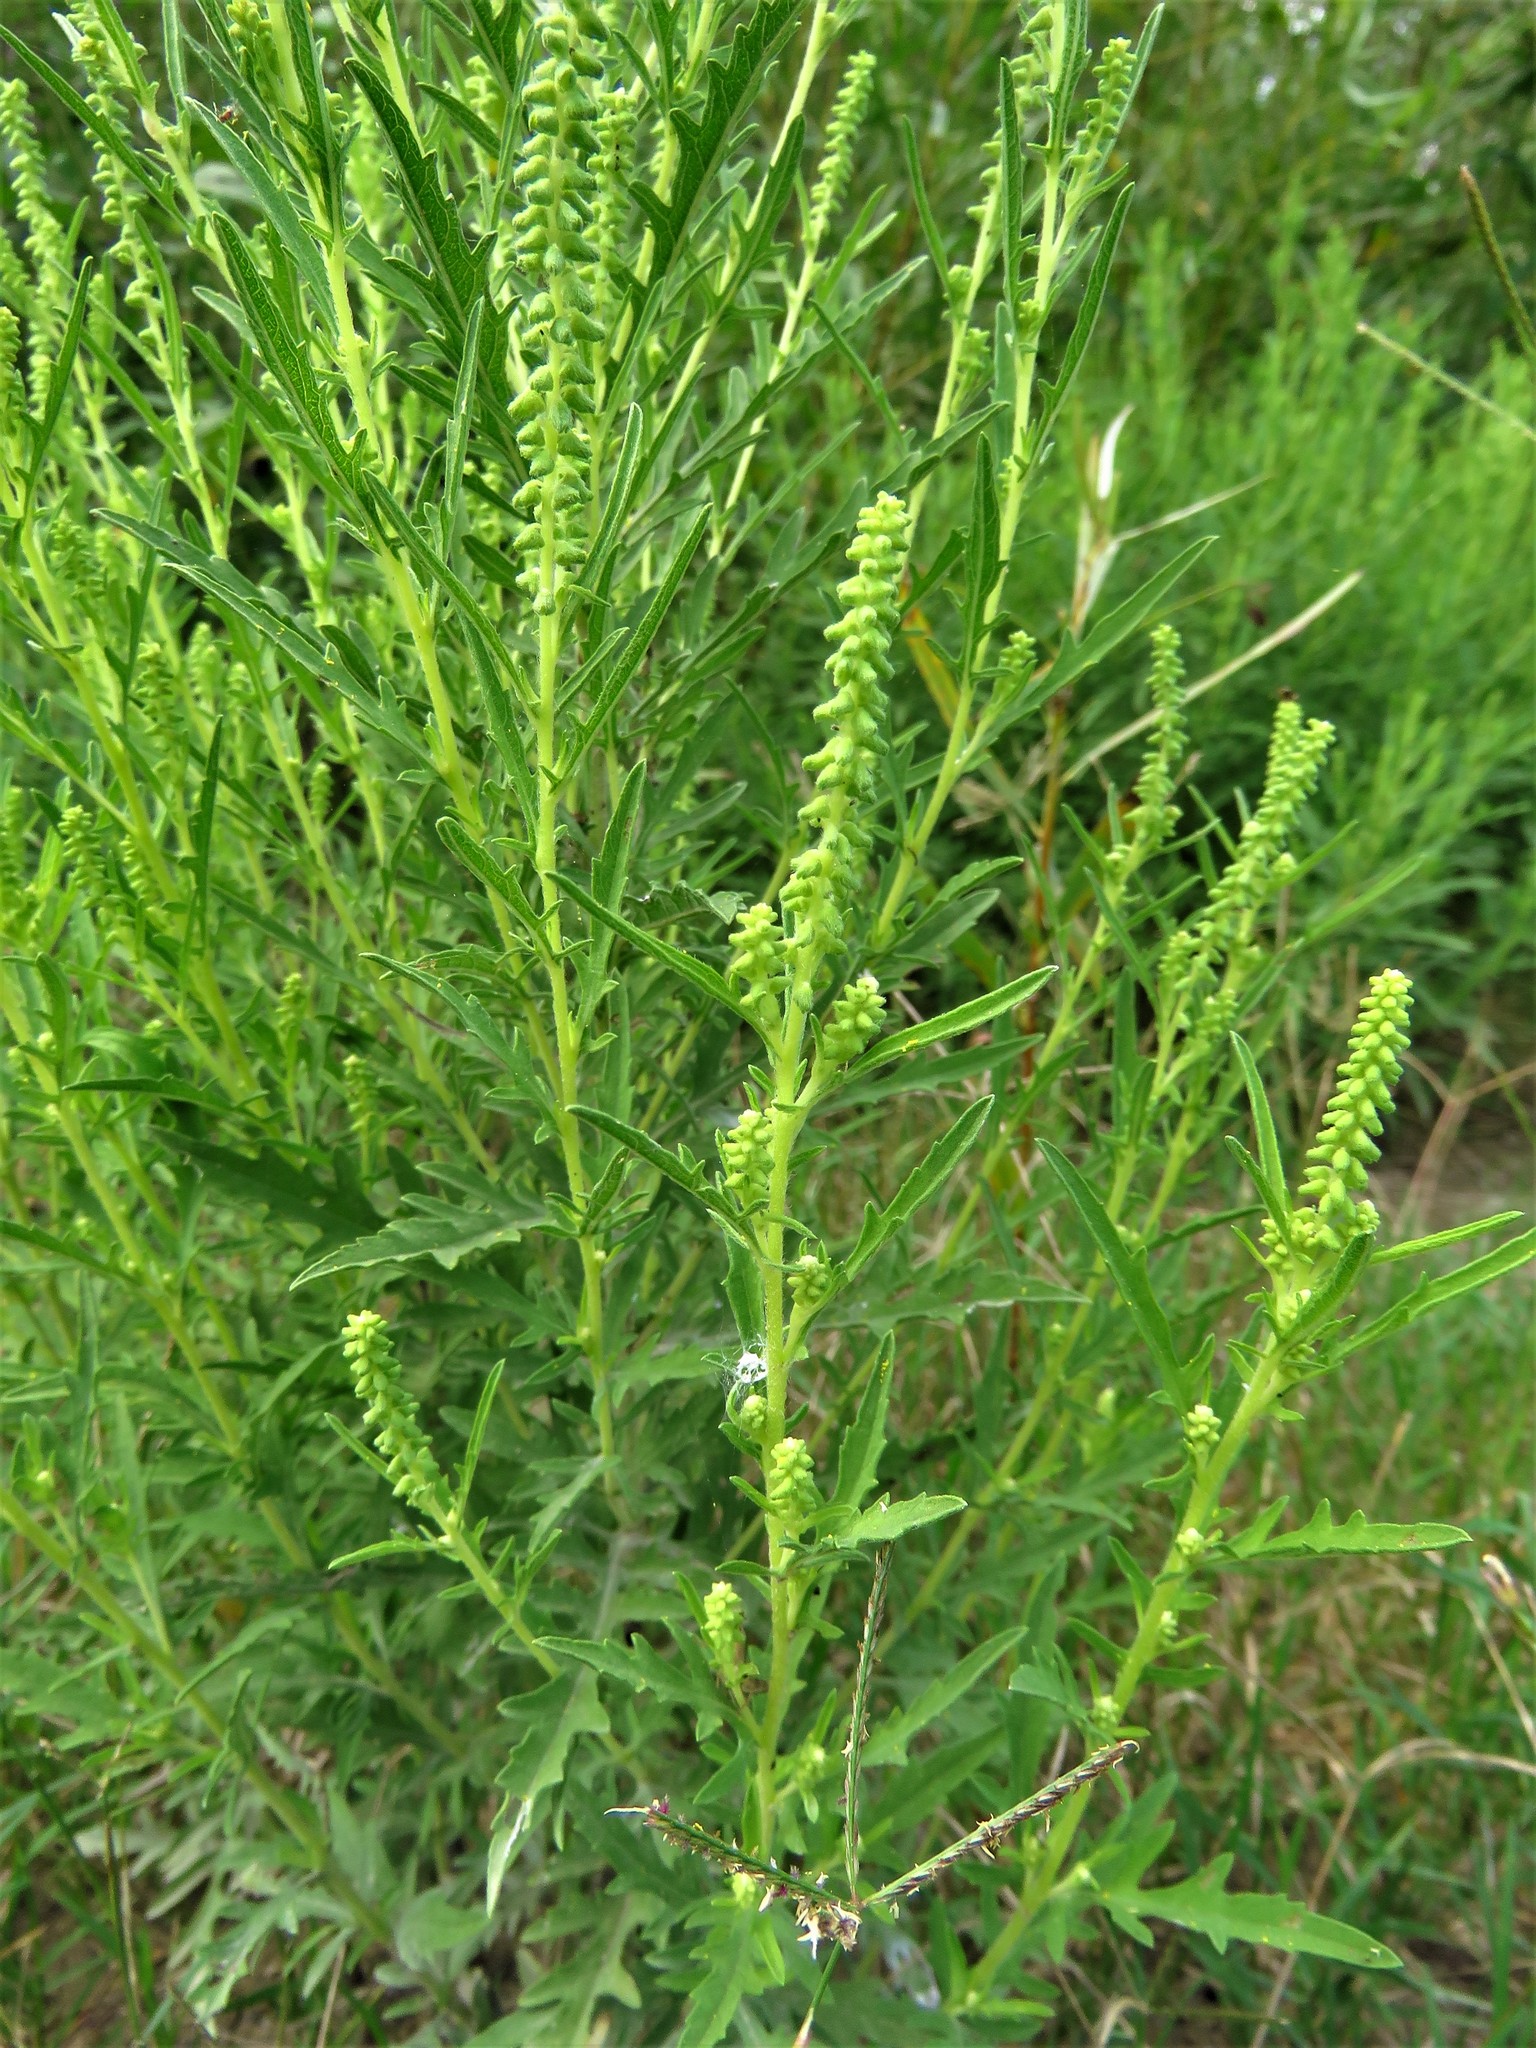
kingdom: Plantae
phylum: Tracheophyta
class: Magnoliopsida
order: Asterales
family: Asteraceae
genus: Ambrosia
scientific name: Ambrosia psilostachya
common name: Perennial ragweed
